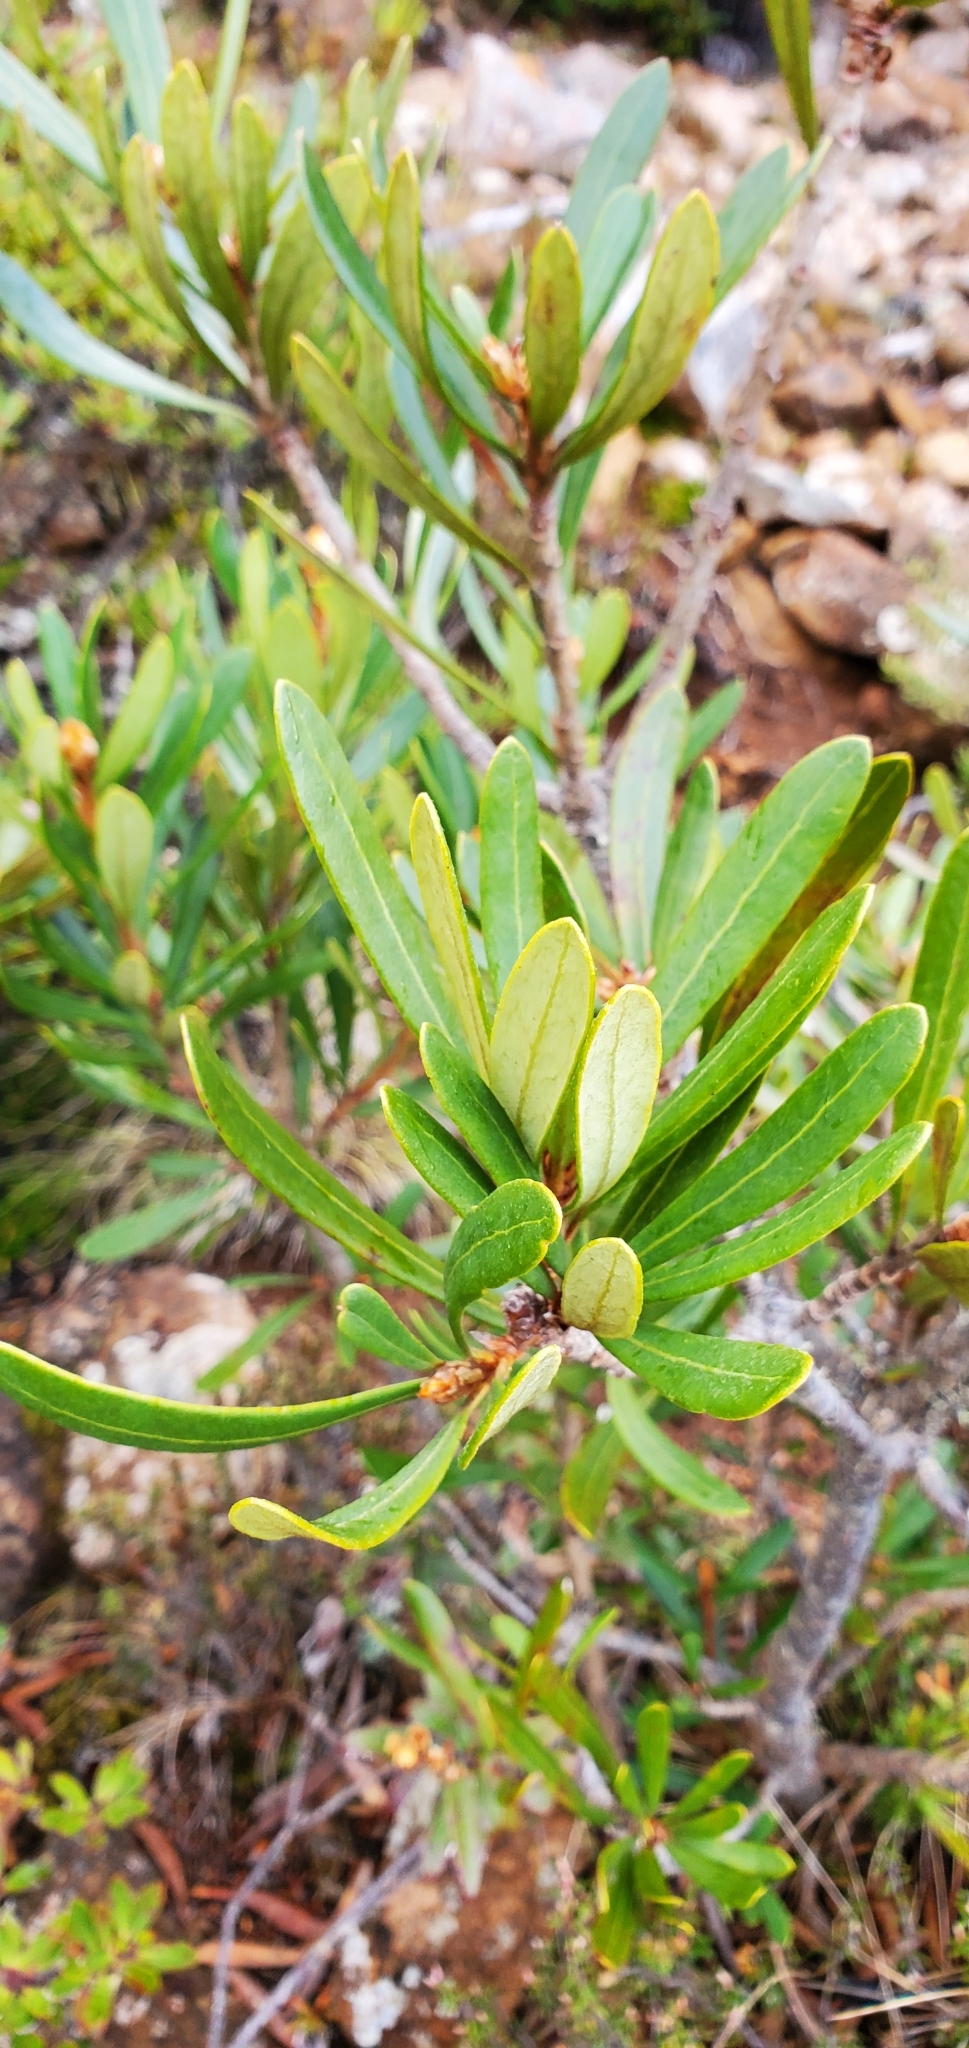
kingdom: Plantae
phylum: Tracheophyta
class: Magnoliopsida
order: Proteales
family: Proteaceae
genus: Telopea
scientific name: Telopea truncata
